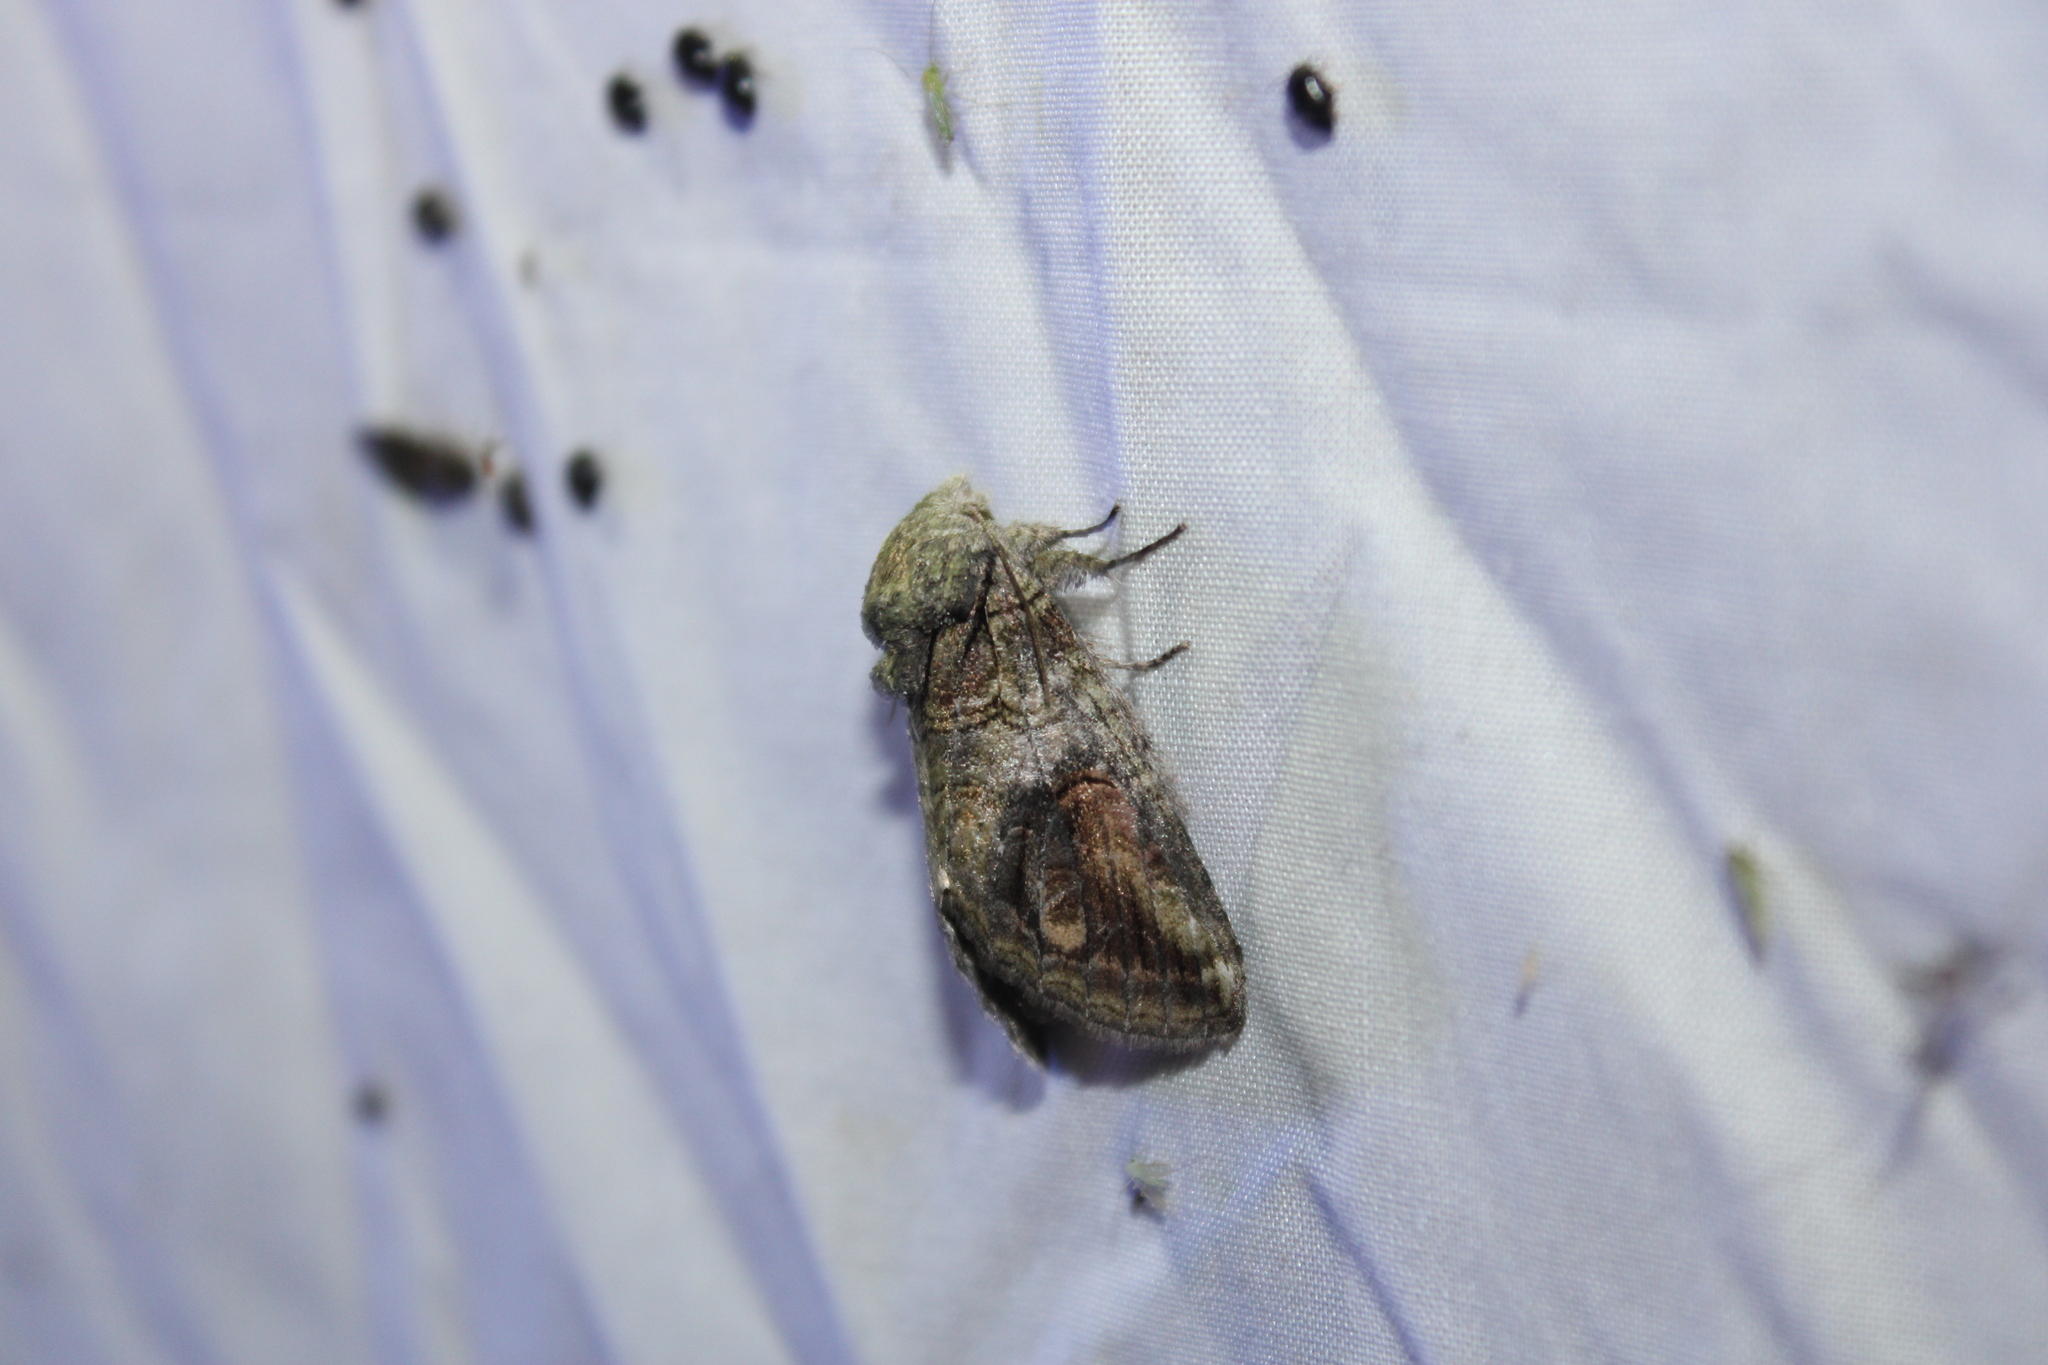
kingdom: Animalia
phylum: Arthropoda
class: Insecta
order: Lepidoptera
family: Notodontidae
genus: Heterocampa
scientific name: Heterocampa obliqua
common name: Oblique heterocampa
